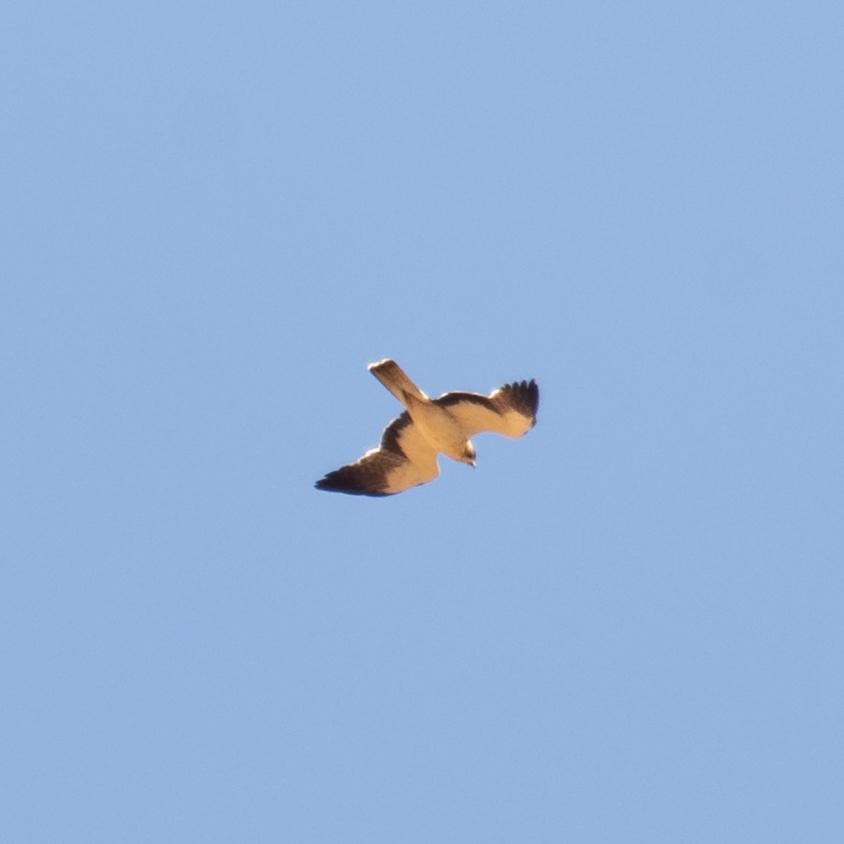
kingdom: Animalia
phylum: Chordata
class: Aves
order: Accipitriformes
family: Accipitridae
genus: Hieraaetus
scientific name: Hieraaetus pennatus
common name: Booted eagle
